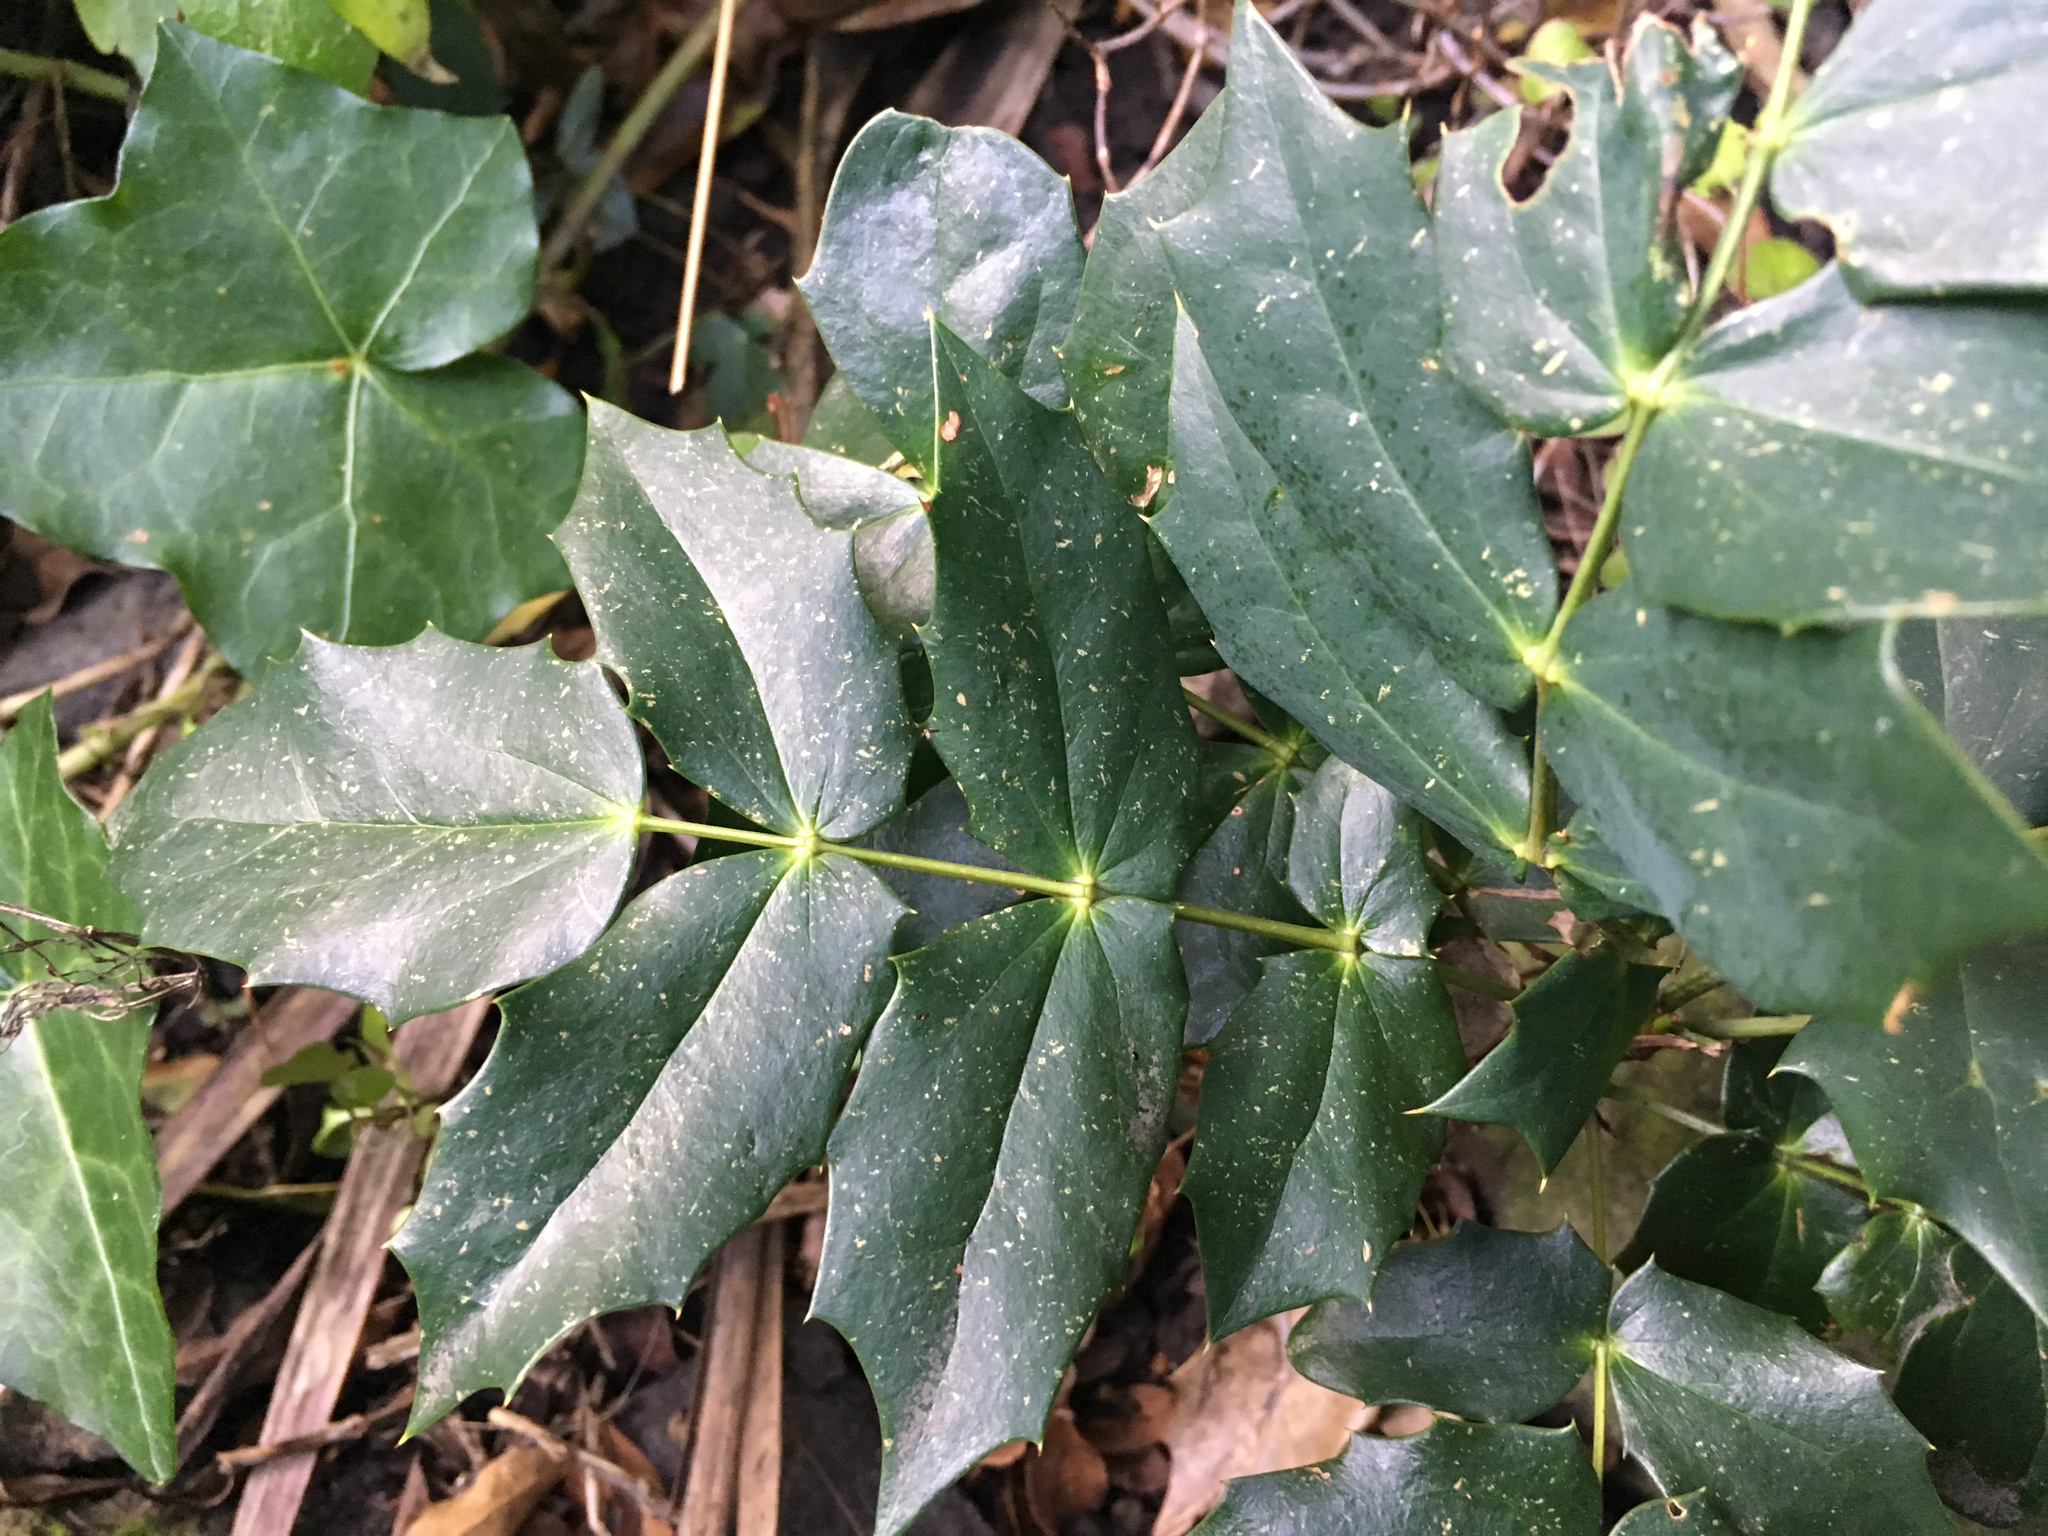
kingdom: Plantae
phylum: Tracheophyta
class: Magnoliopsida
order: Ranunculales
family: Berberidaceae
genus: Mahonia
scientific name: Mahonia oiwakensis
